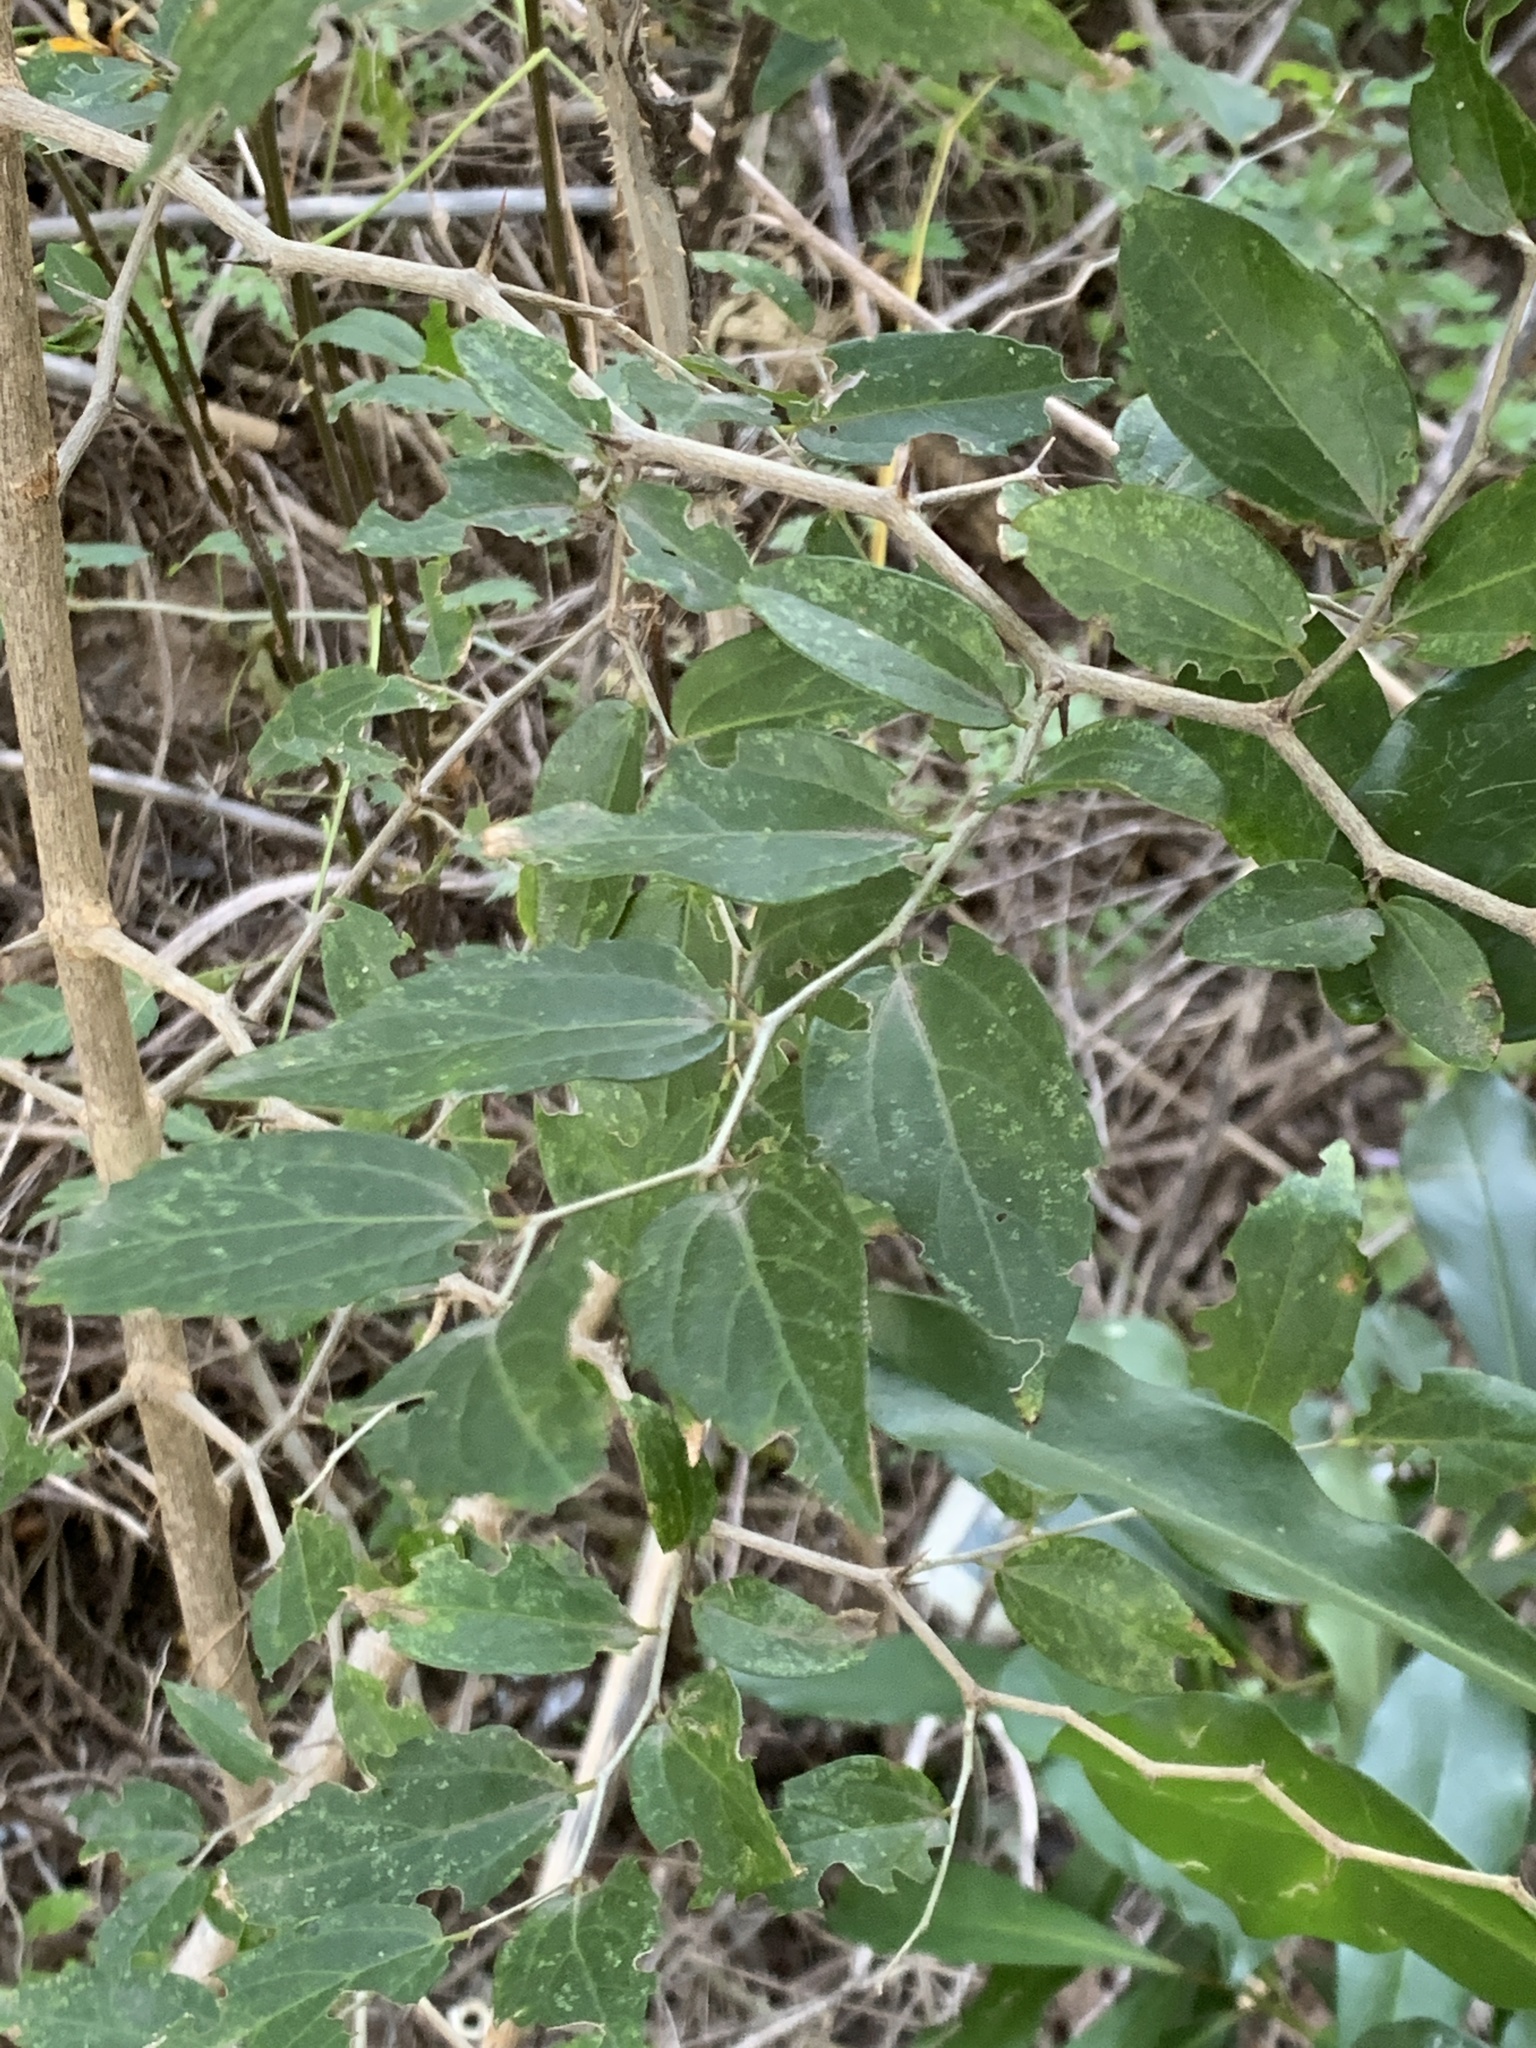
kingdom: Plantae
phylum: Tracheophyta
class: Magnoliopsida
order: Rosales
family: Cannabaceae
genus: Celtis
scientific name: Celtis tala
